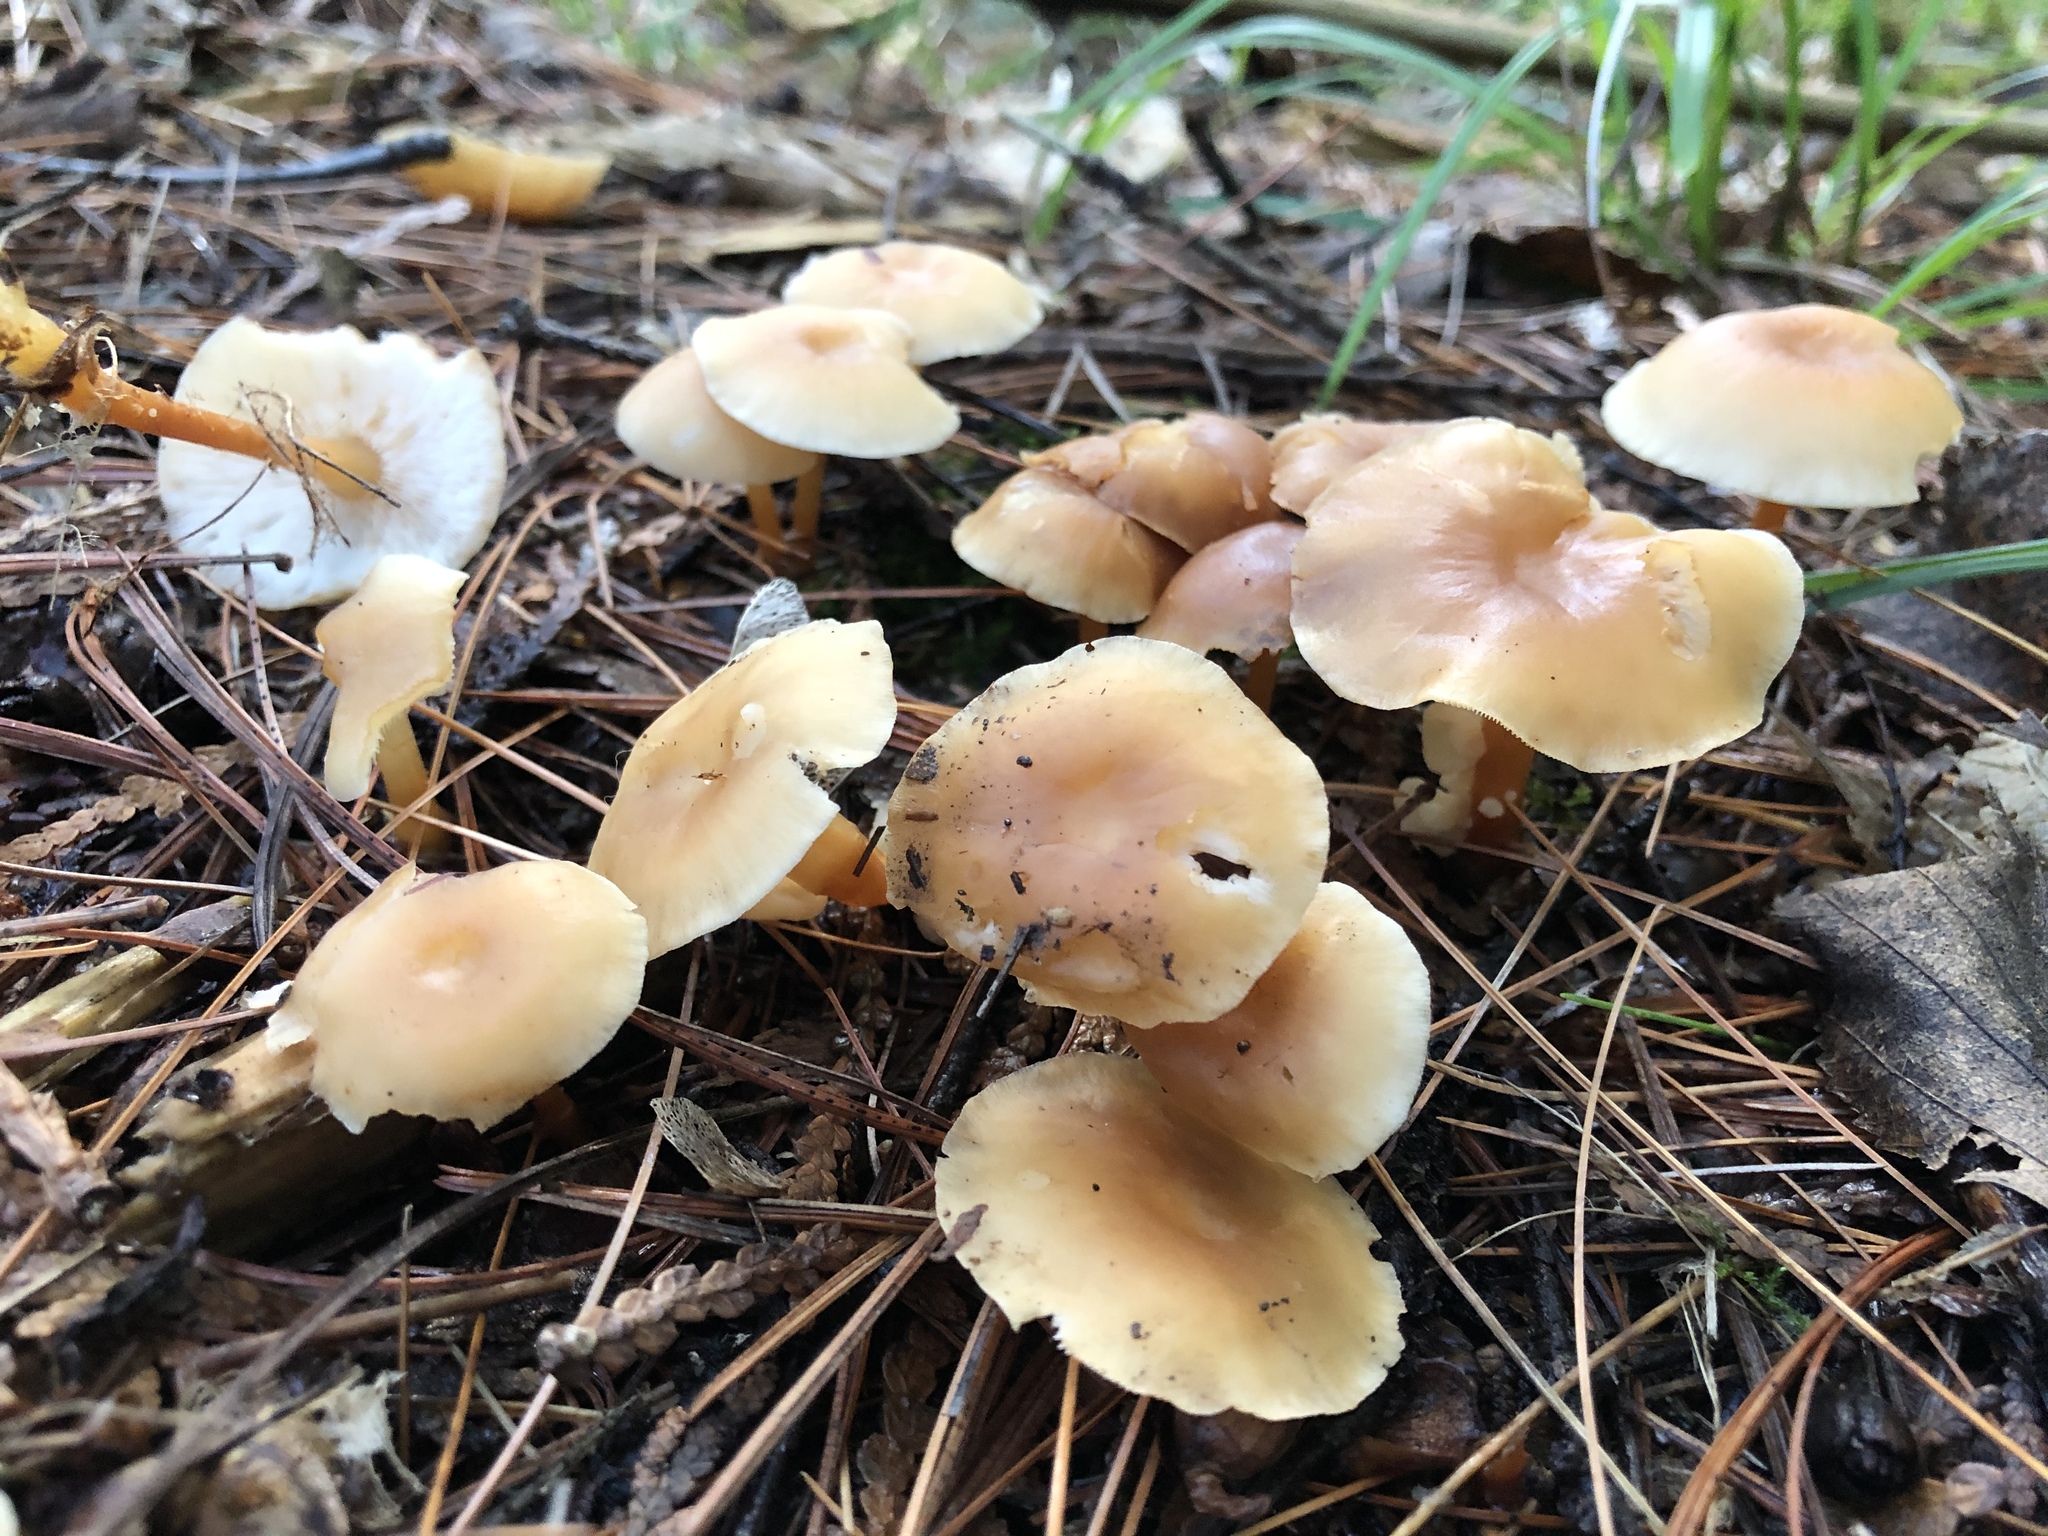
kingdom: Fungi
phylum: Basidiomycota
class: Agaricomycetes
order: Agaricales
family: Omphalotaceae
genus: Gymnopus
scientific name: Gymnopus dryophilus
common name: Penny top
